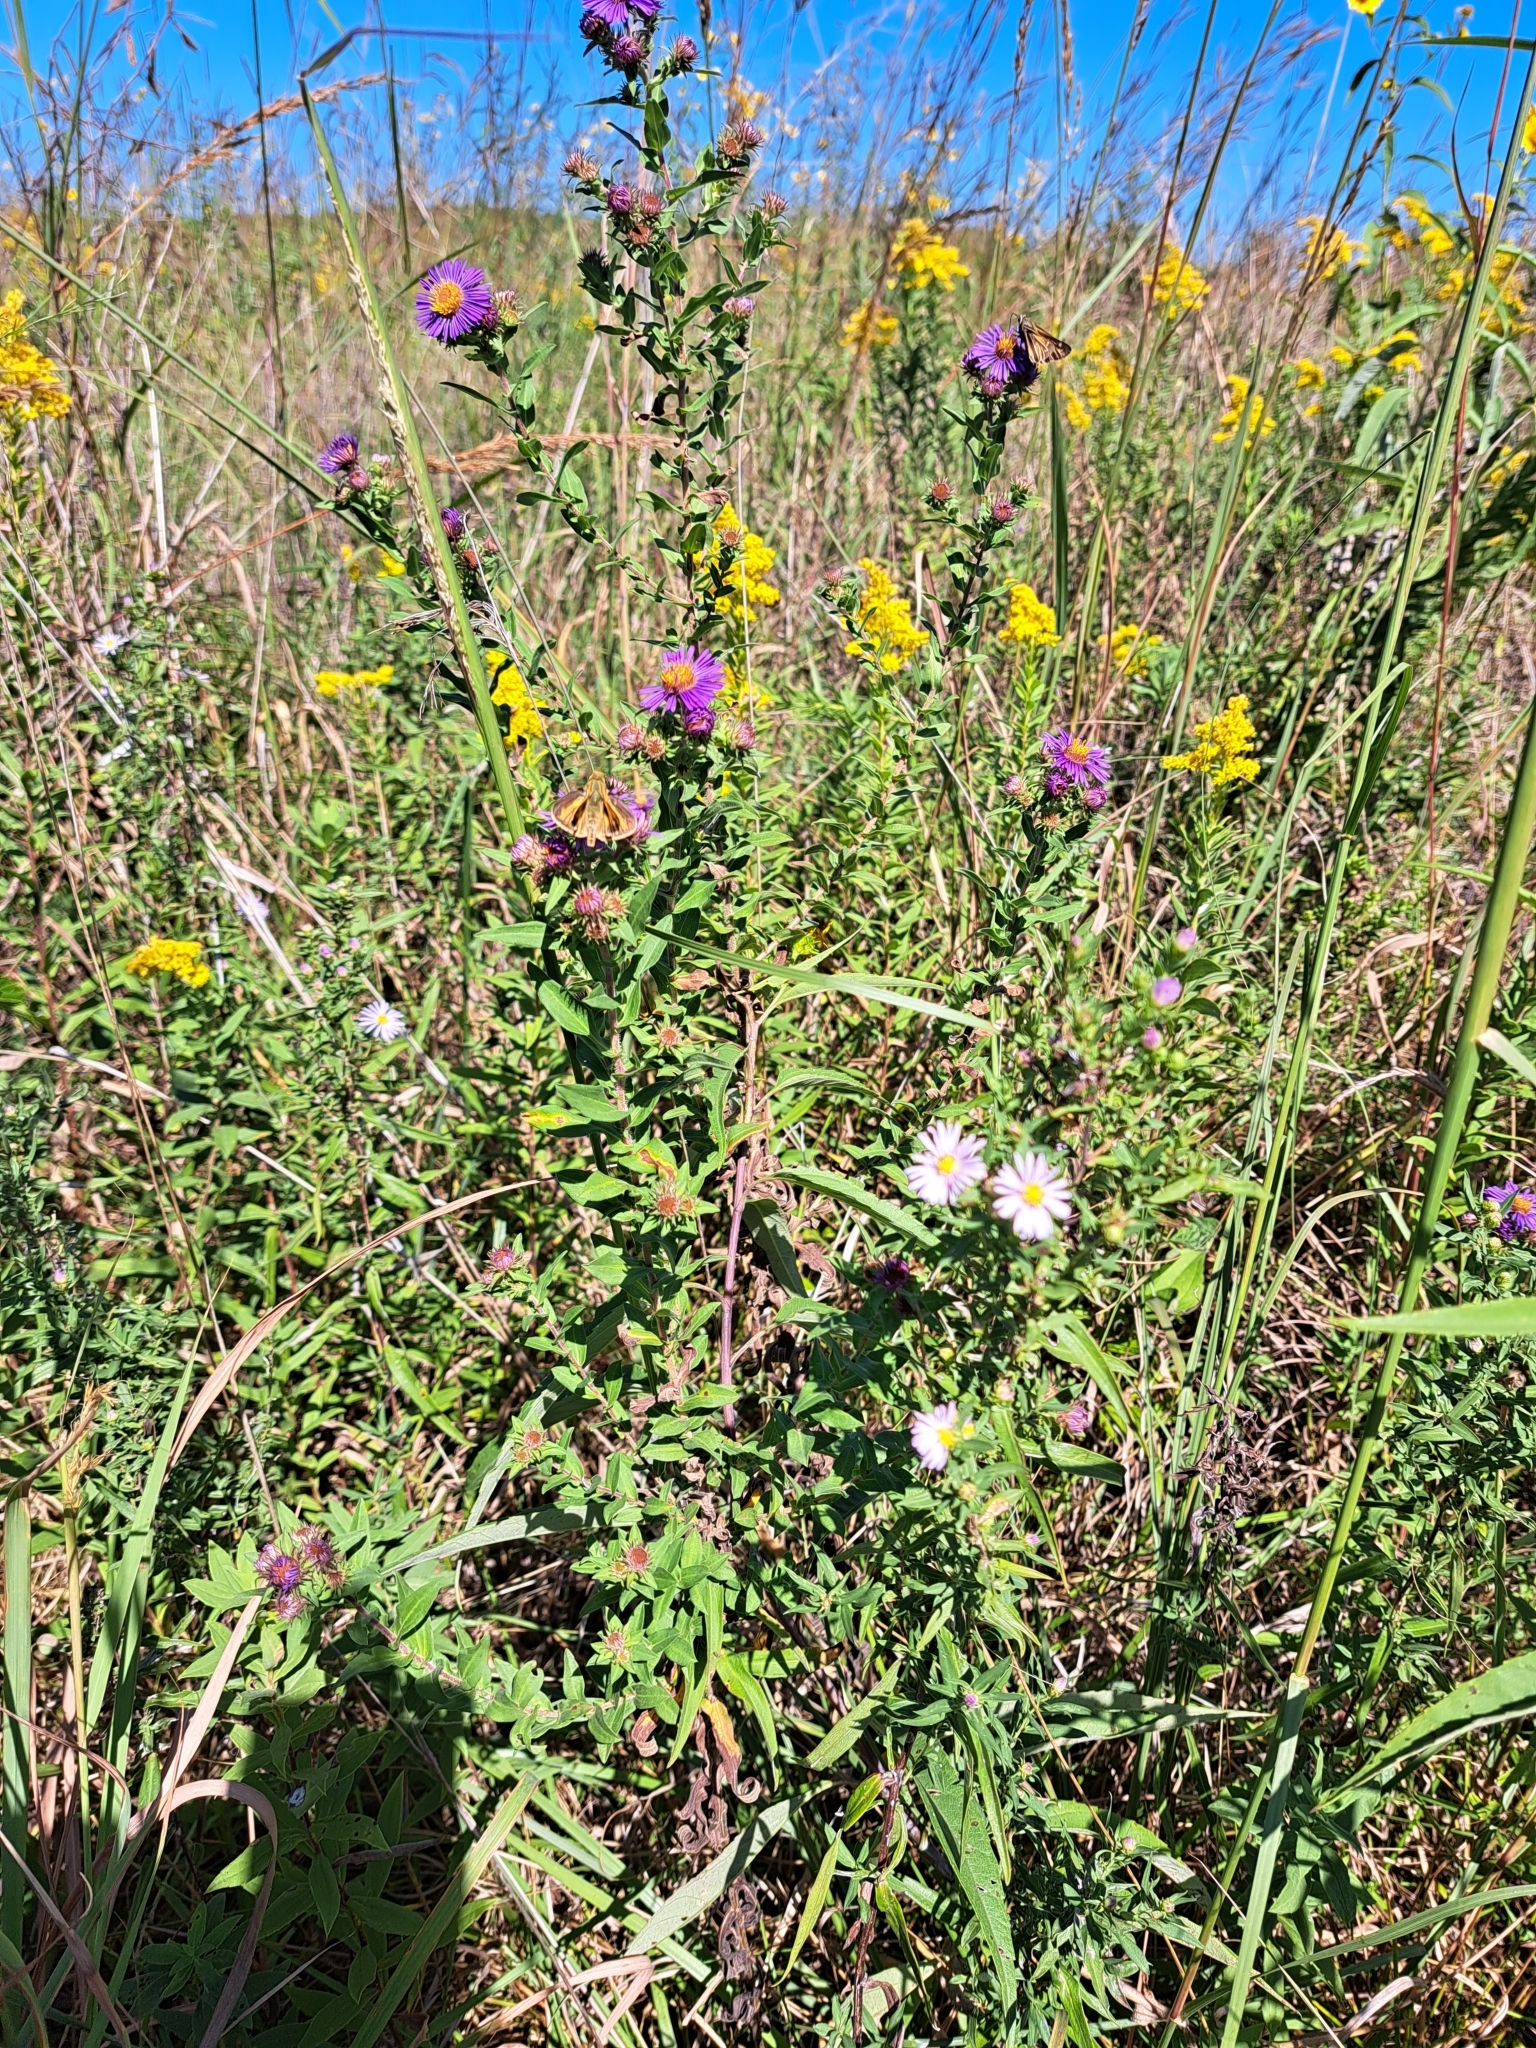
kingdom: Plantae
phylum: Tracheophyta
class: Magnoliopsida
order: Asterales
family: Asteraceae
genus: Symphyotrichum
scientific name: Symphyotrichum novae-angliae
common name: Michaelmas daisy
